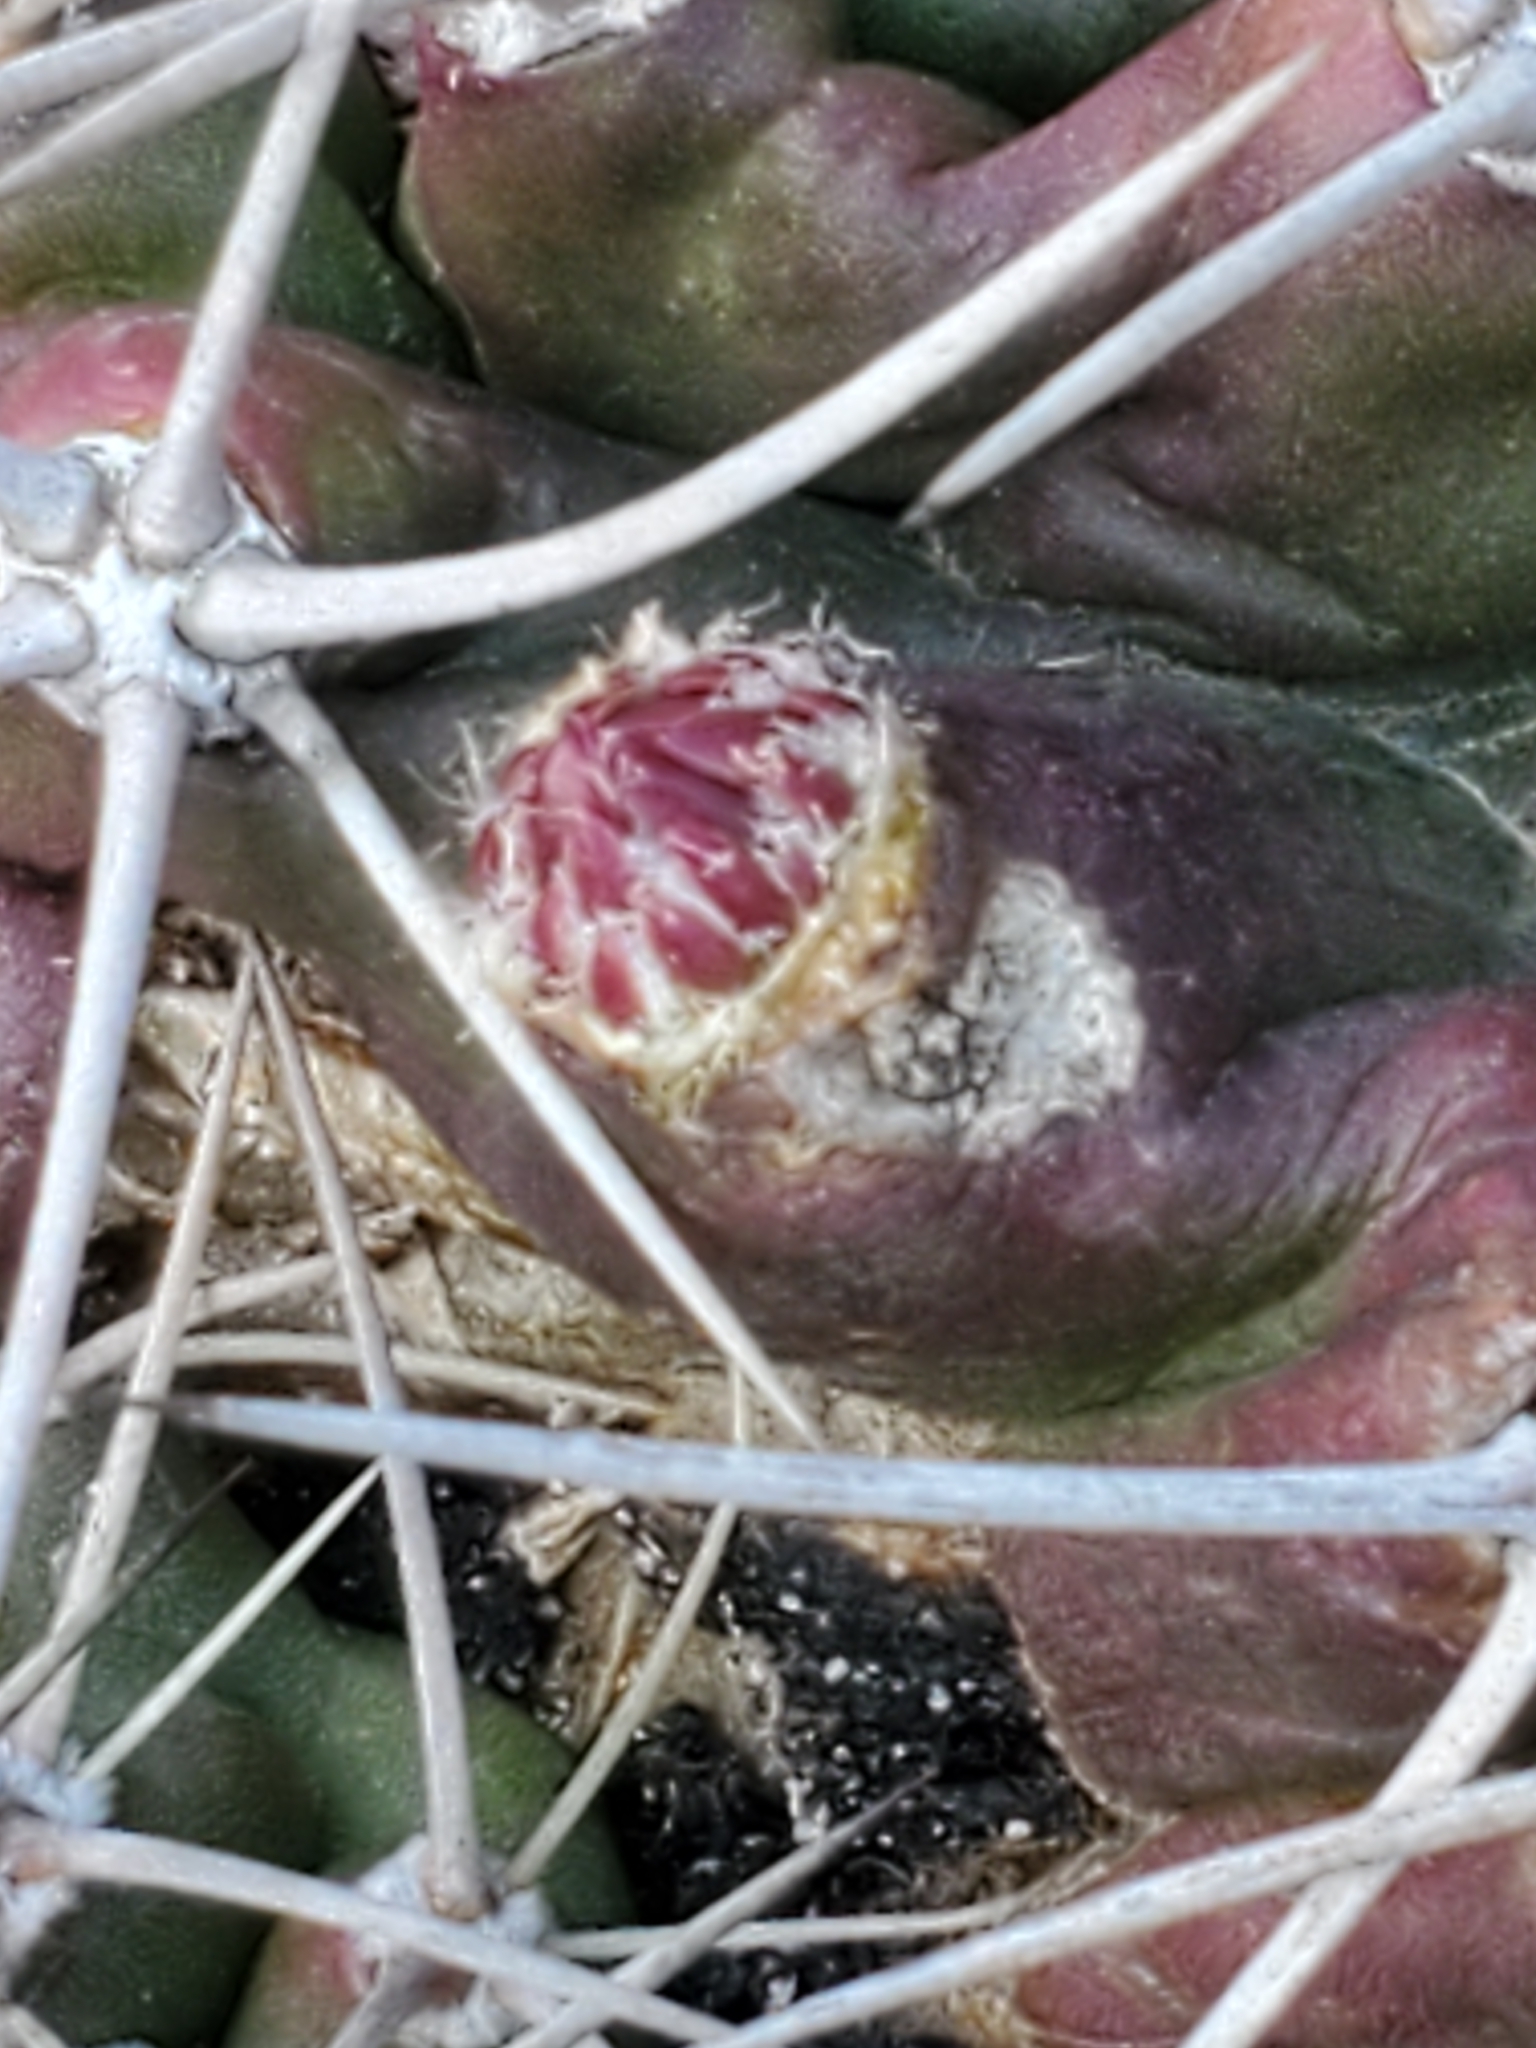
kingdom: Plantae
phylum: Tracheophyta
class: Magnoliopsida
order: Caryophyllales
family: Cactaceae
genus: Echinocereus
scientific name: Echinocereus coccineus
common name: Scarlet hedgehog cactus
